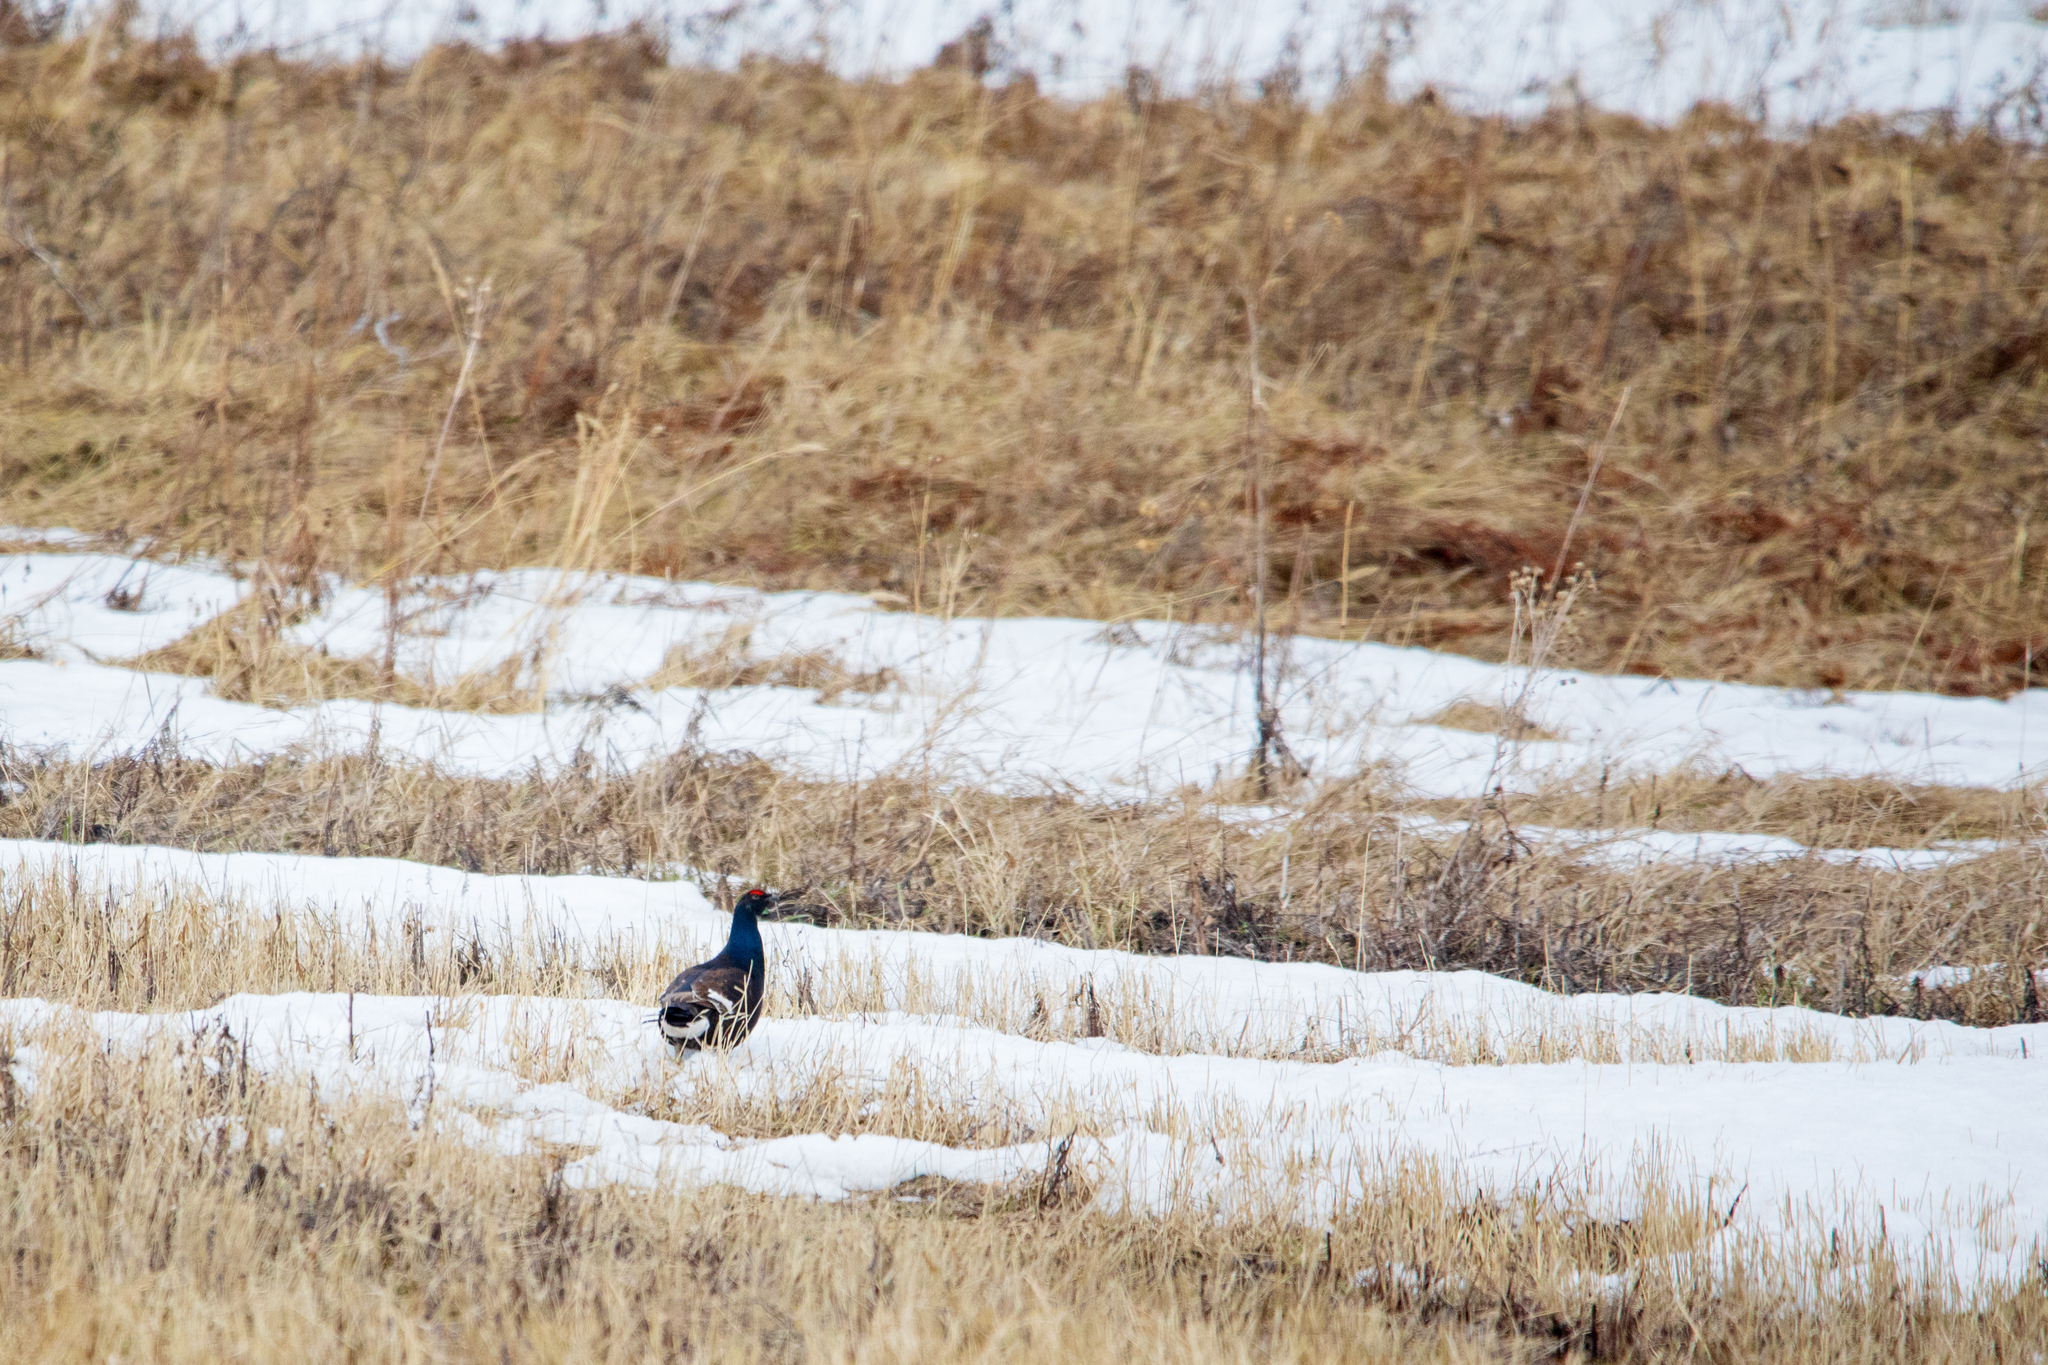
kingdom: Animalia
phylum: Chordata
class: Aves
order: Galliformes
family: Phasianidae
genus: Lyrurus
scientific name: Lyrurus tetrix
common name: Black grouse
